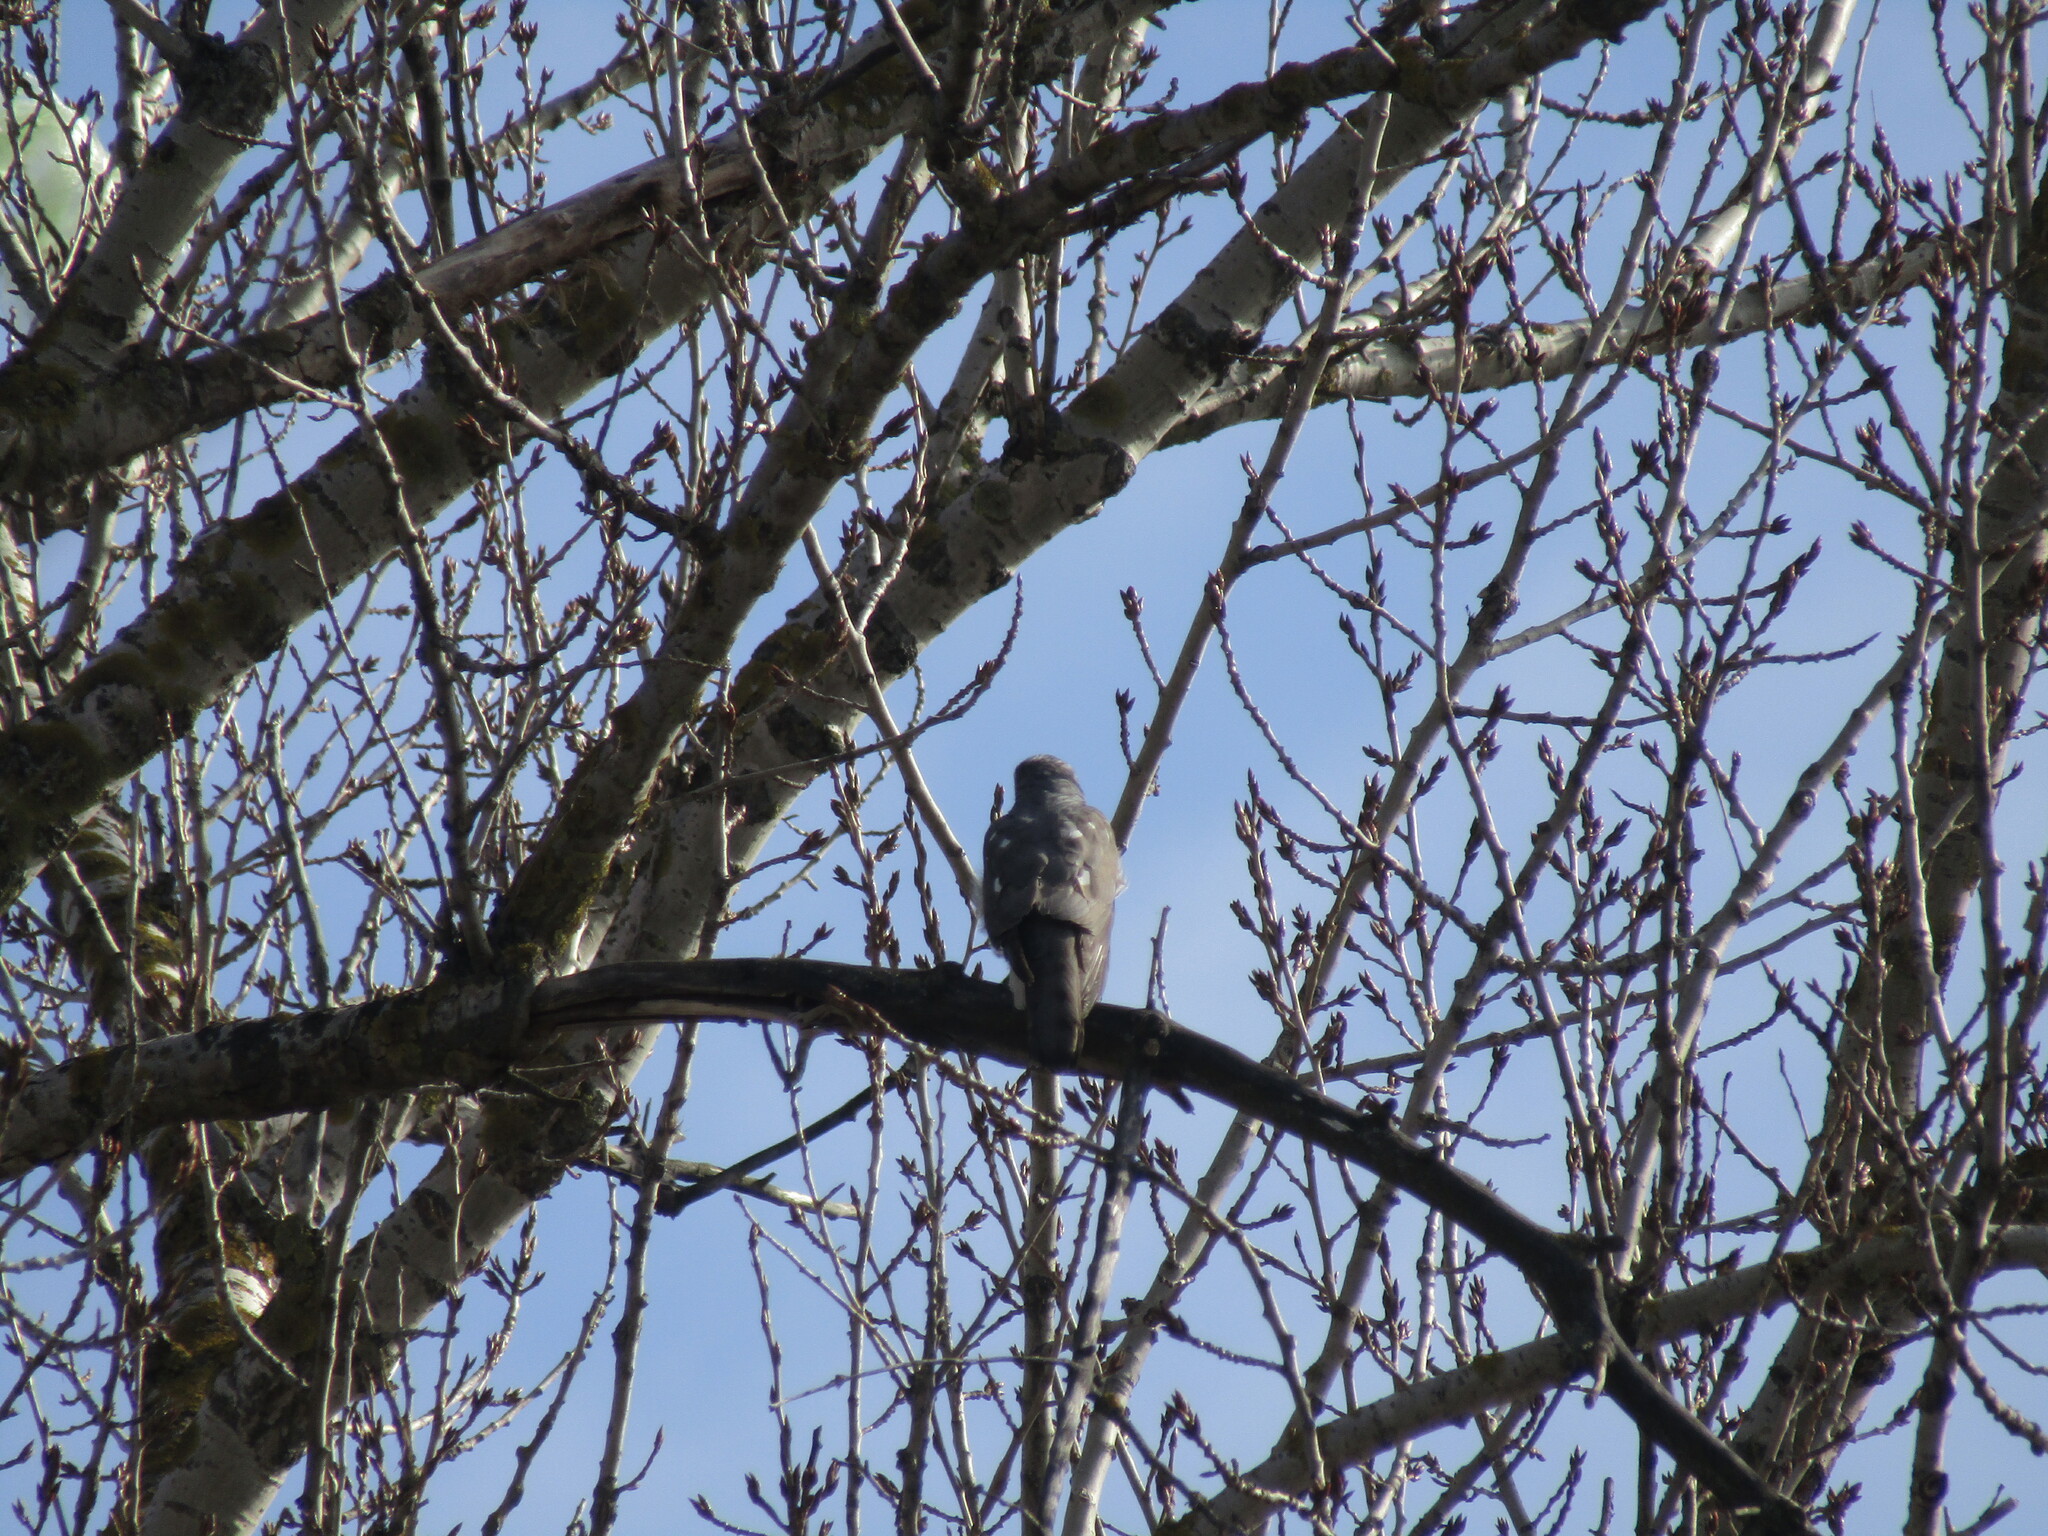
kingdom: Animalia
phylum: Chordata
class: Aves
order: Accipitriformes
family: Accipitridae
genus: Accipiter
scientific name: Accipiter nisus
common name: Eurasian sparrowhawk
